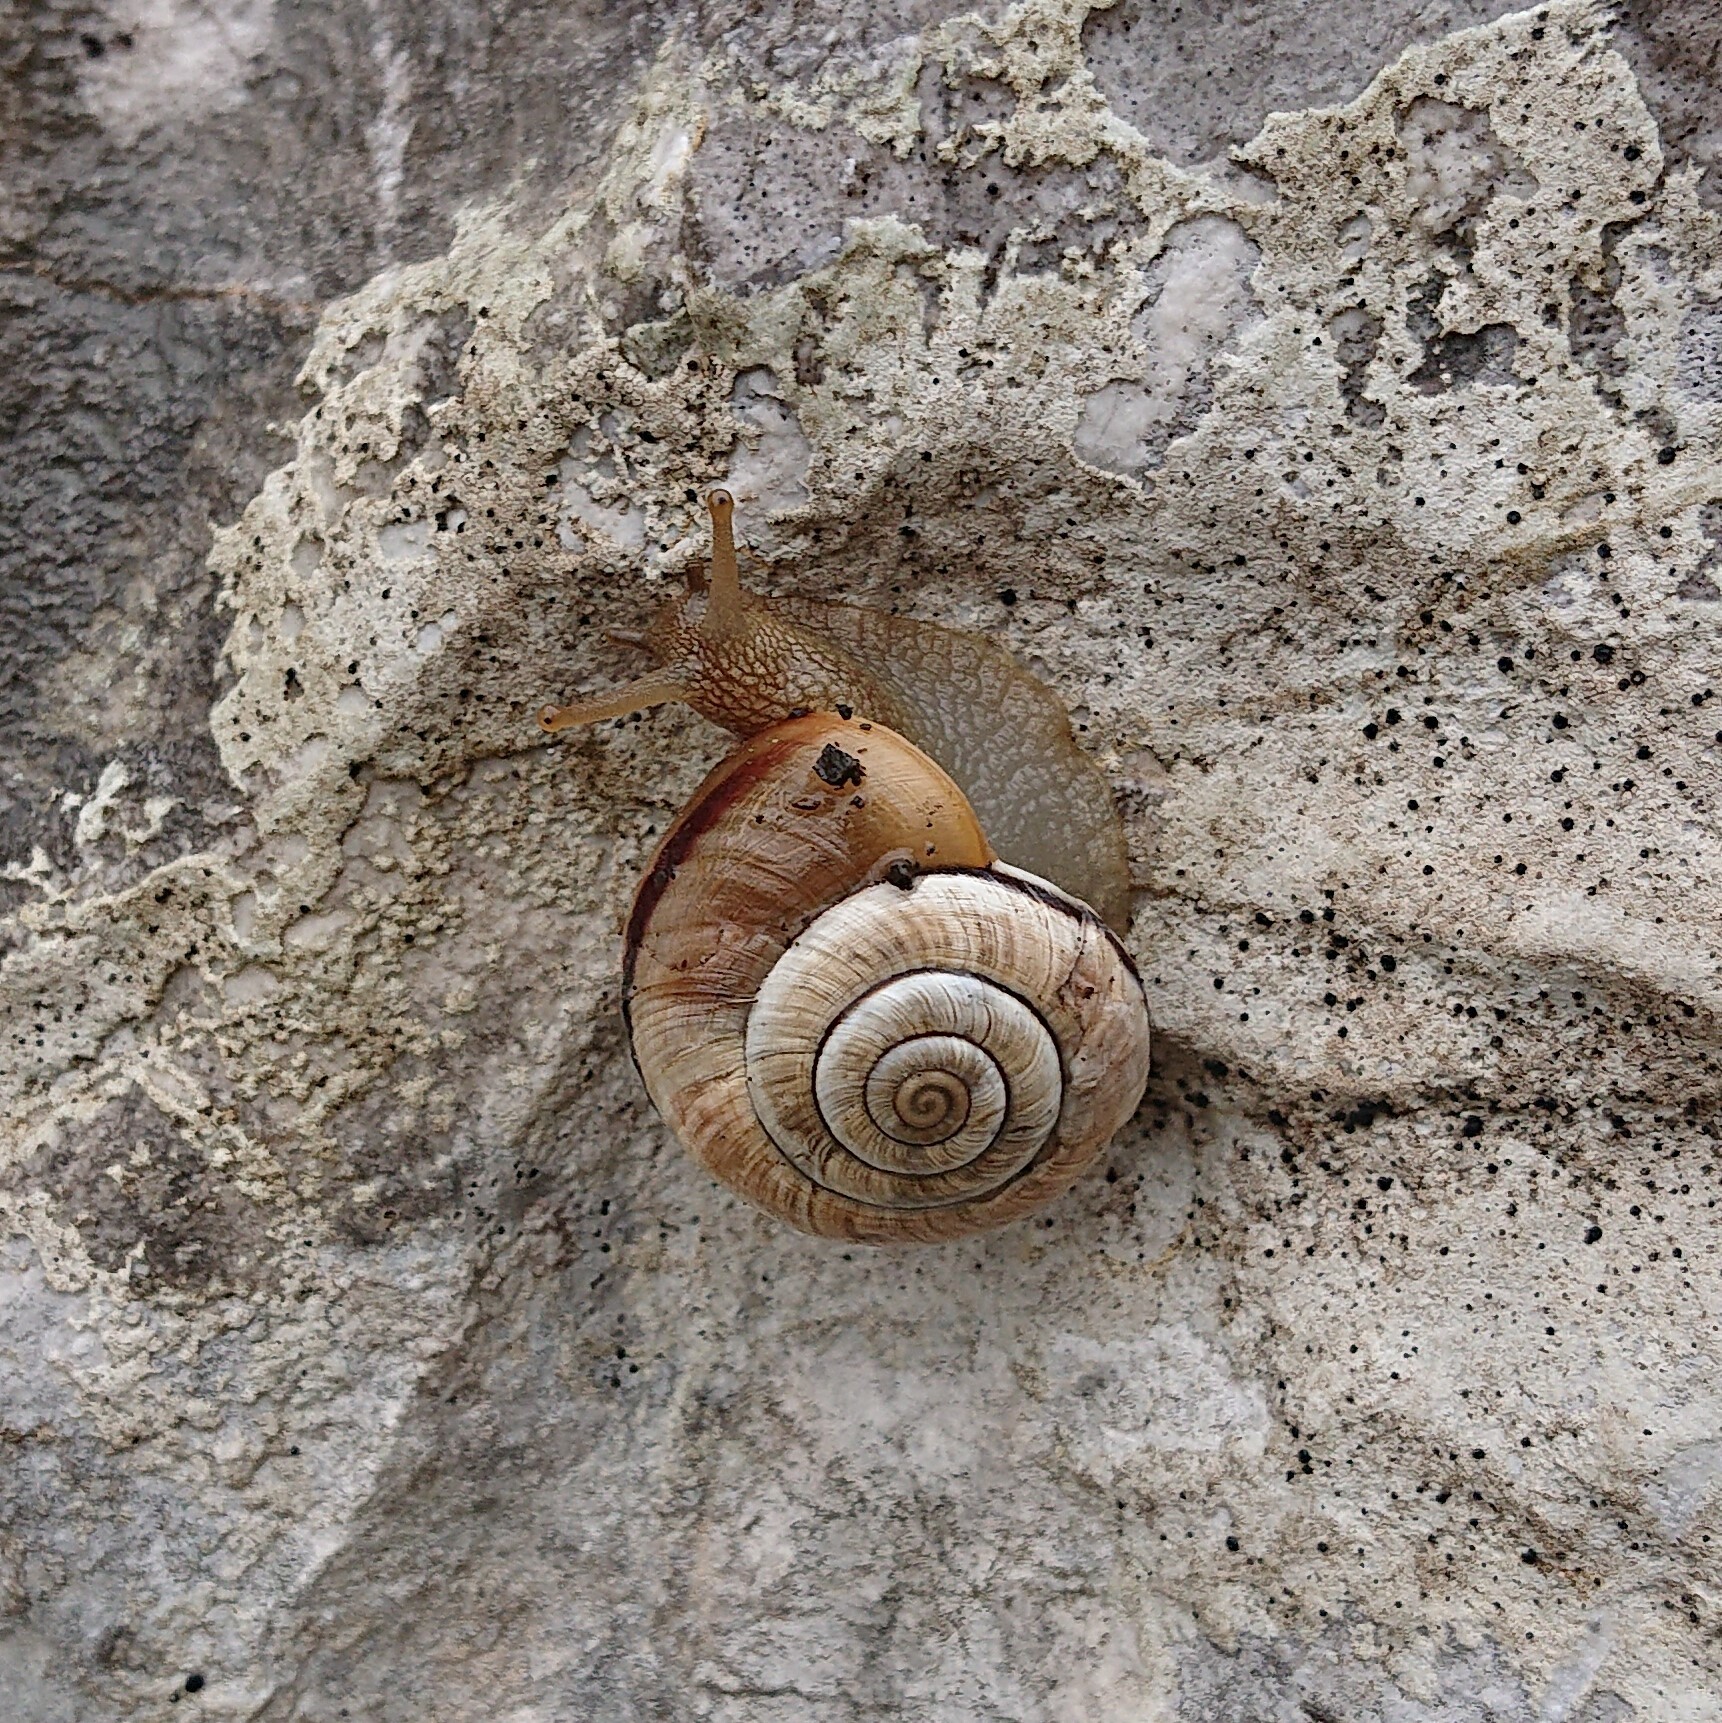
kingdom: Animalia
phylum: Mollusca
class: Gastropoda
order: Stylommatophora
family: Helicidae
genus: Arianta
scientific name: Arianta chamaeleon
